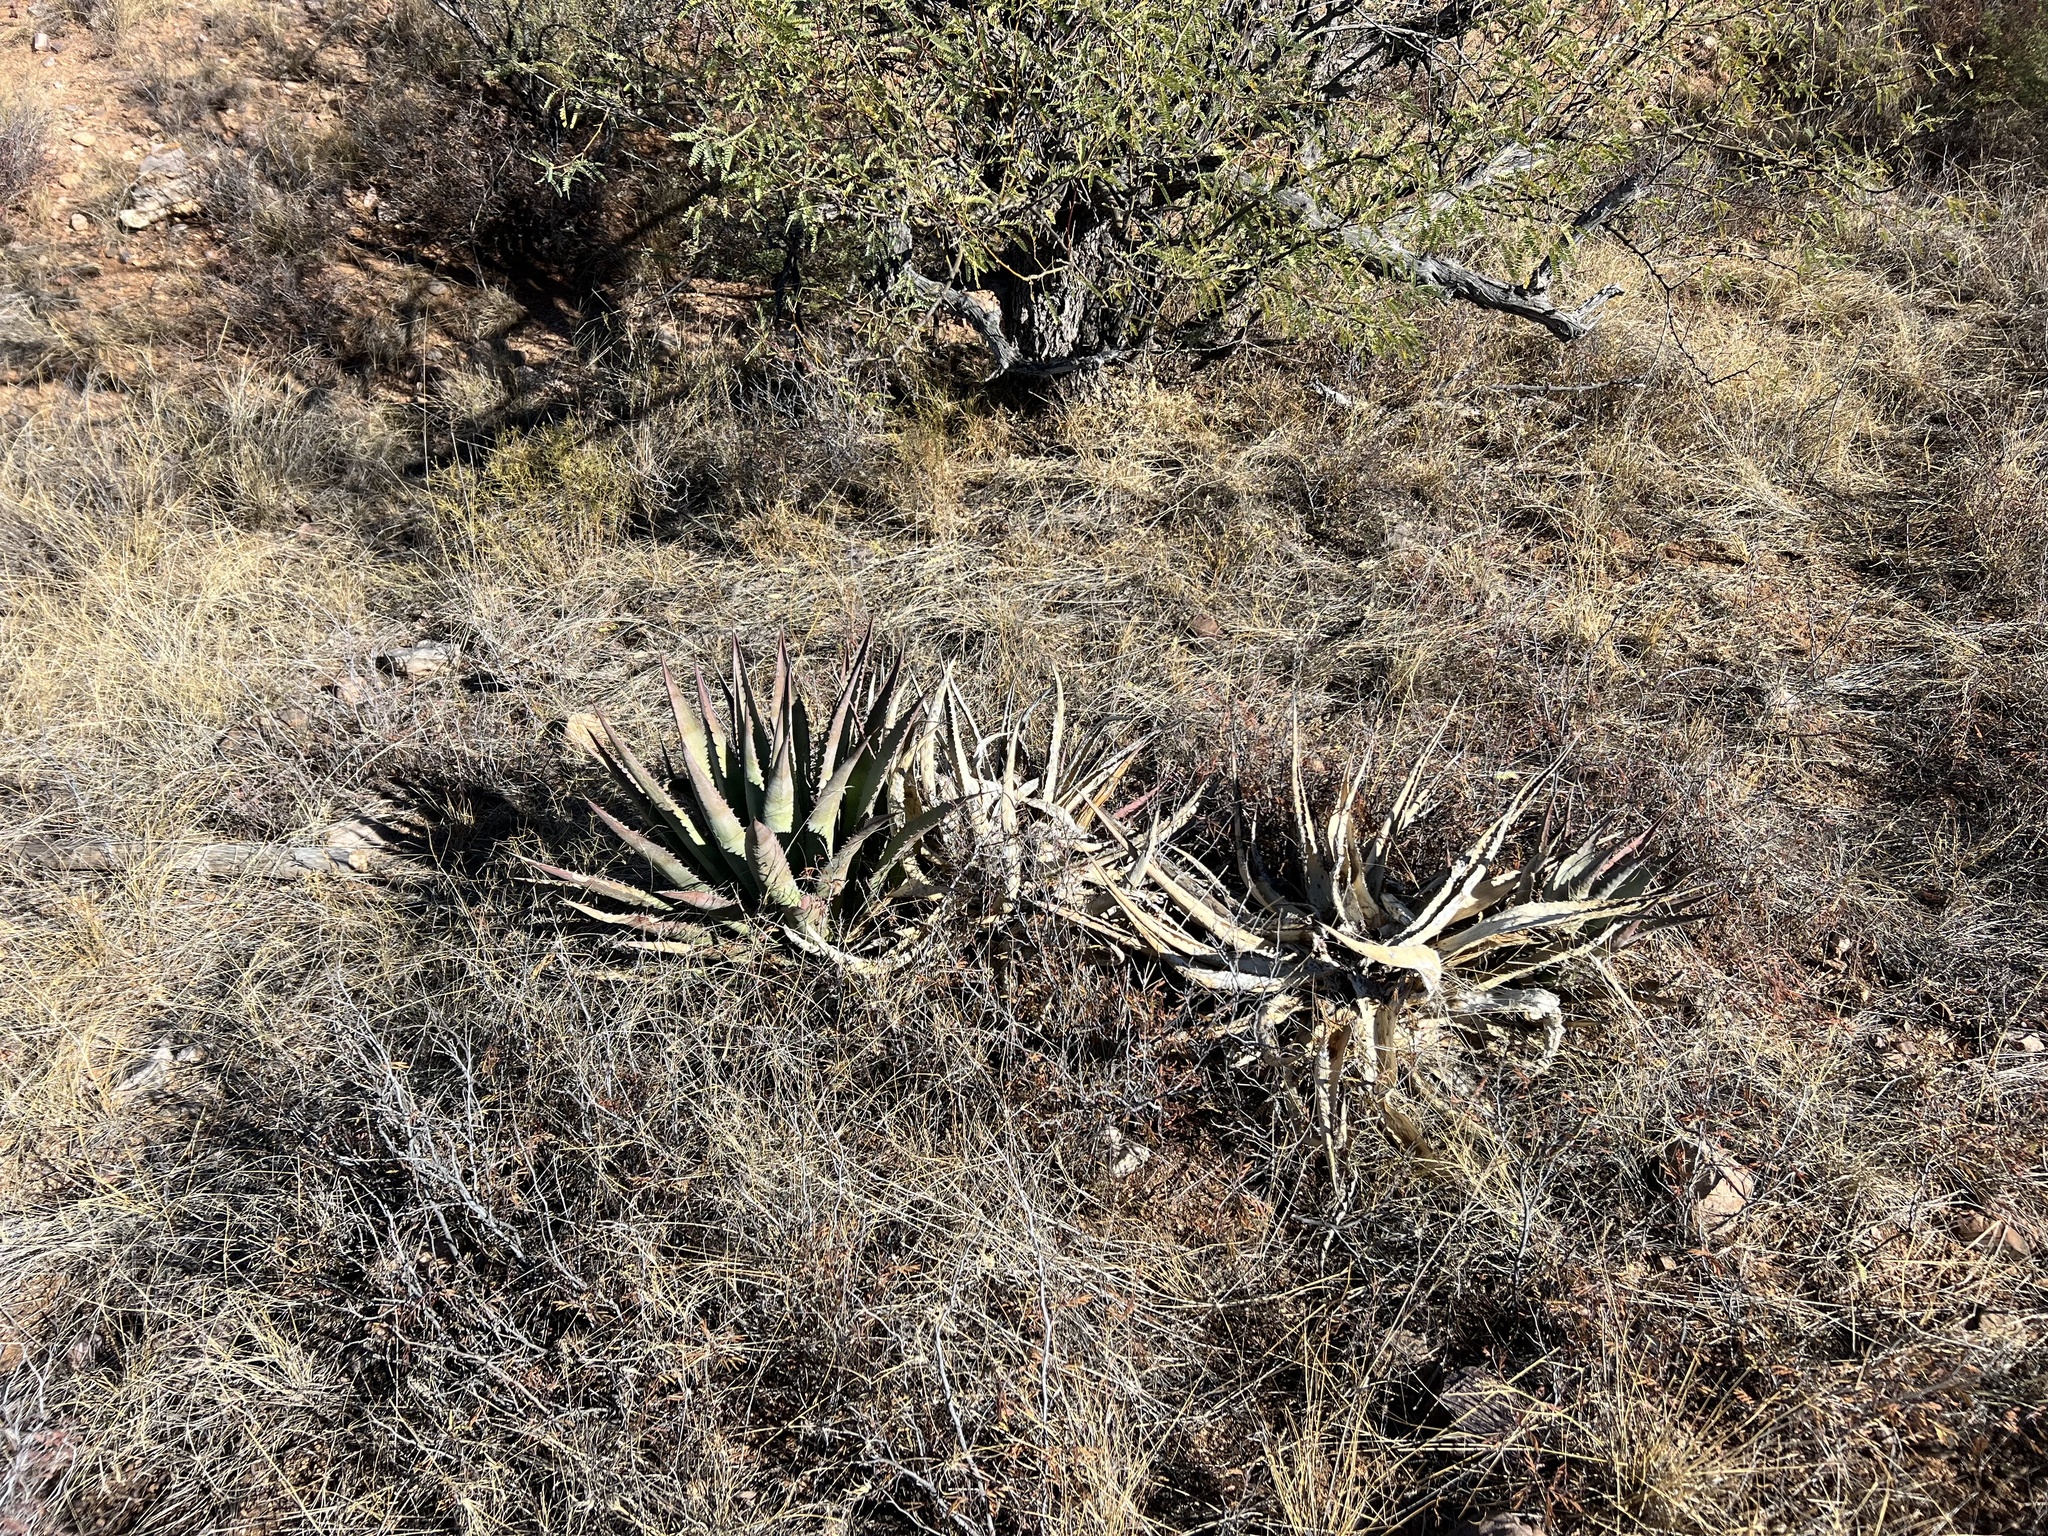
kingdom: Plantae
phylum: Tracheophyta
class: Liliopsida
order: Asparagales
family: Asparagaceae
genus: Agave
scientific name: Agave palmeri
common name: Palmer agave
